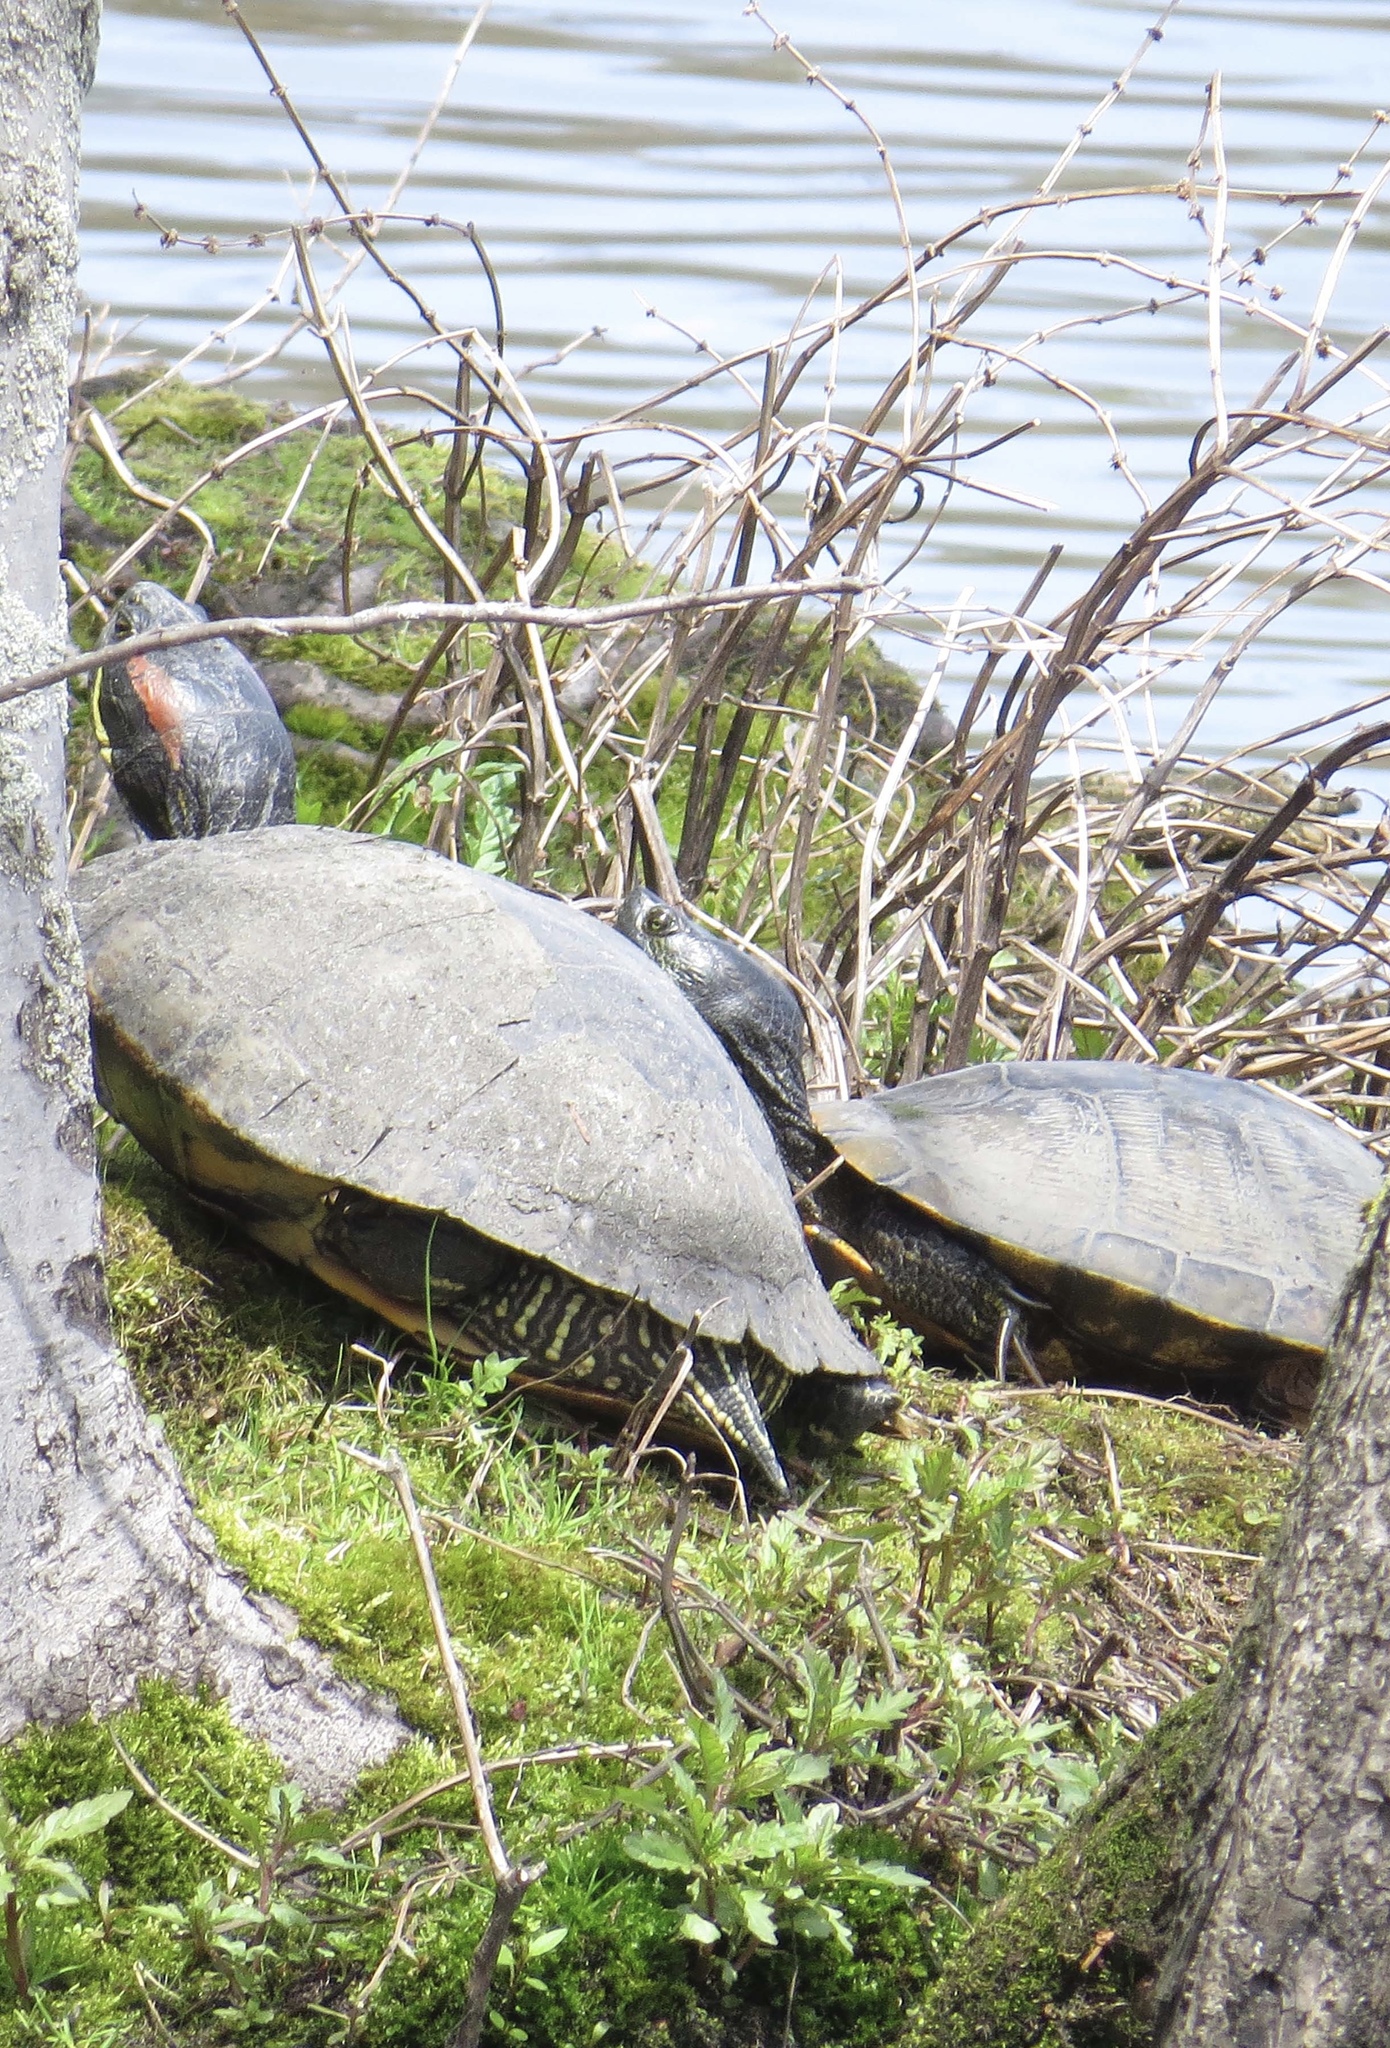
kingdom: Animalia
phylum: Chordata
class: Testudines
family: Emydidae
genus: Trachemys
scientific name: Trachemys scripta
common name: Slider
